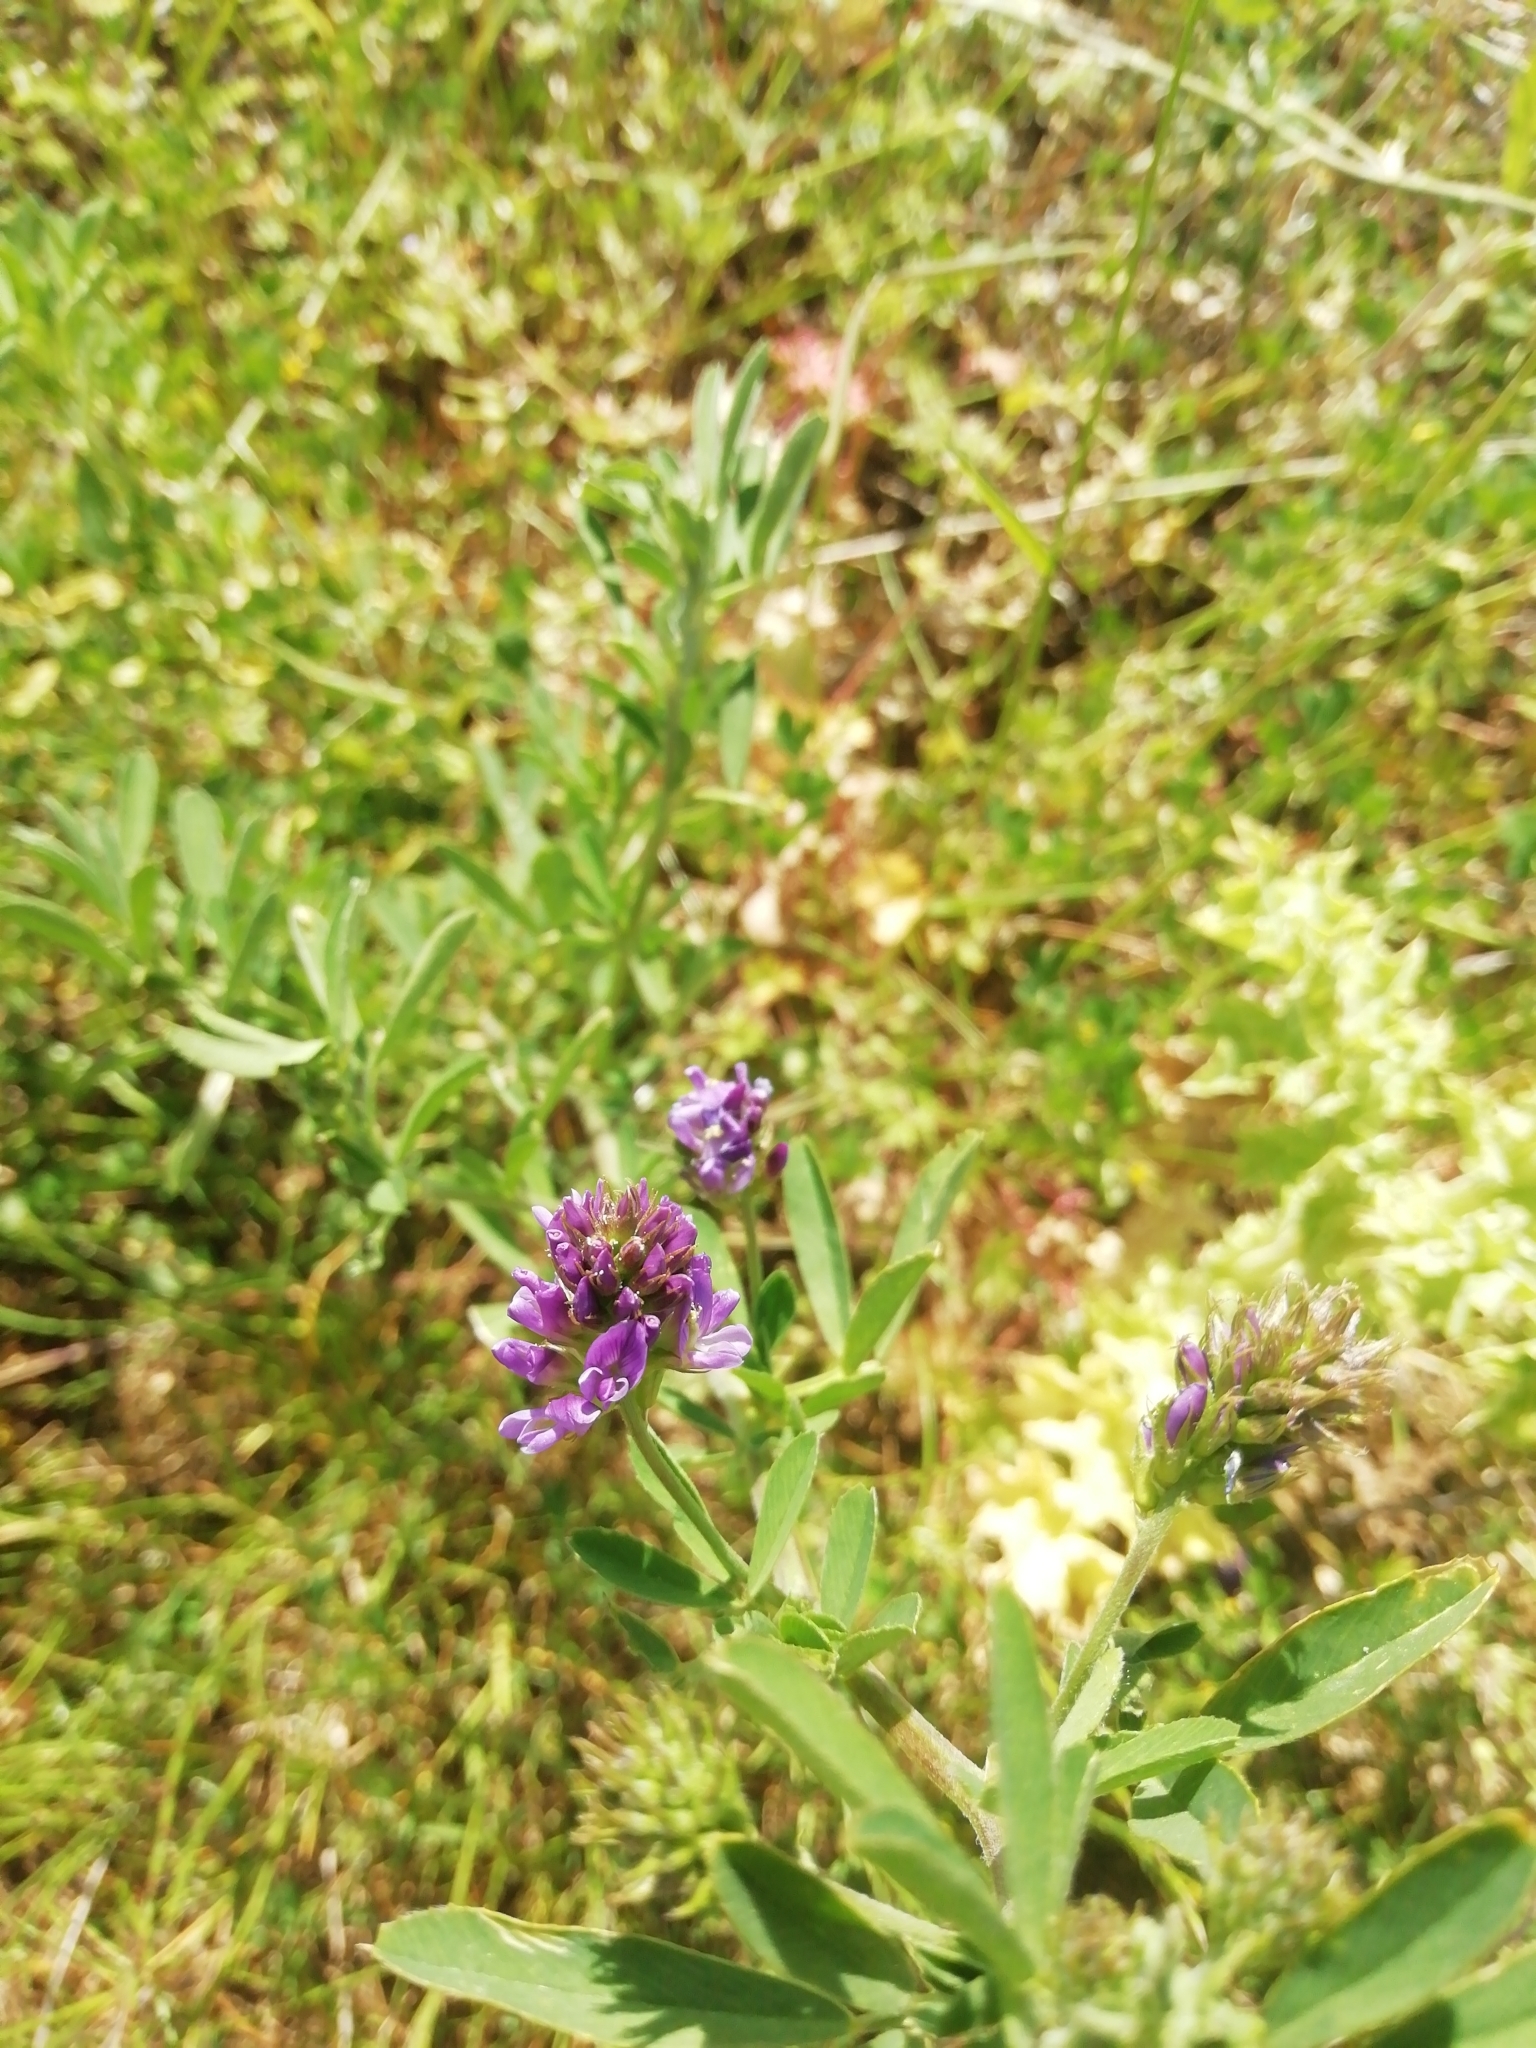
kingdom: Plantae
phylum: Tracheophyta
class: Magnoliopsida
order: Fabales
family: Fabaceae
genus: Medicago
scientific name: Medicago sativa
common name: Alfalfa
